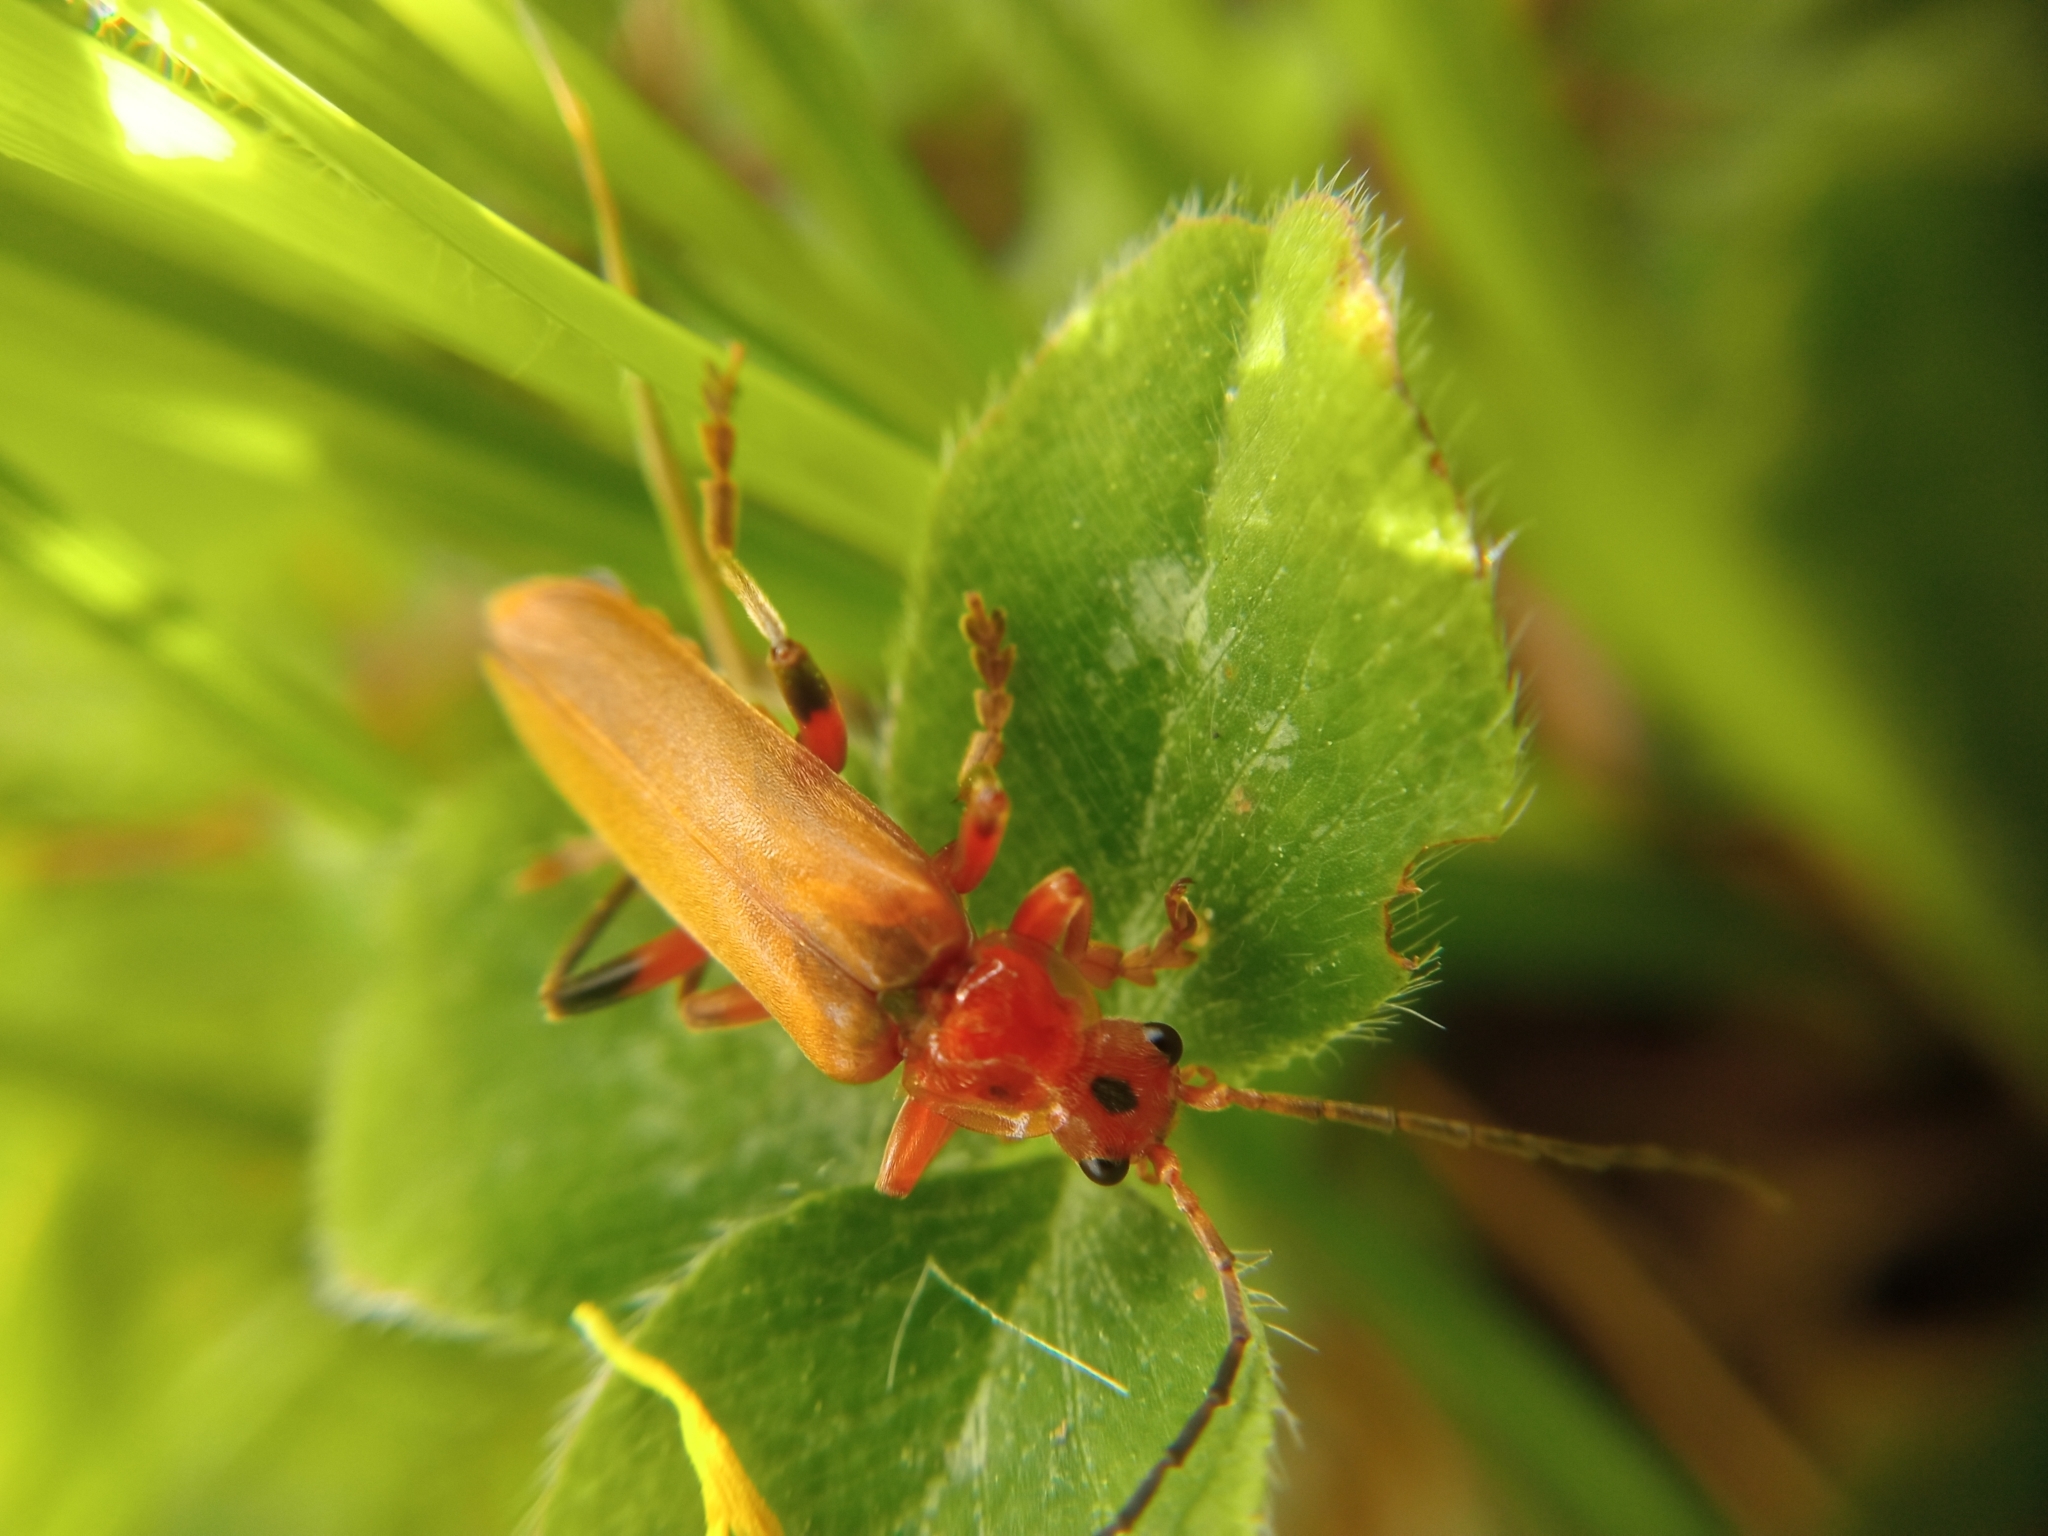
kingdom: Animalia
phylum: Arthropoda
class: Insecta
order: Coleoptera
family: Cantharidae
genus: Cantharis
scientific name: Cantharis livida
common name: Livid soldier beetle
